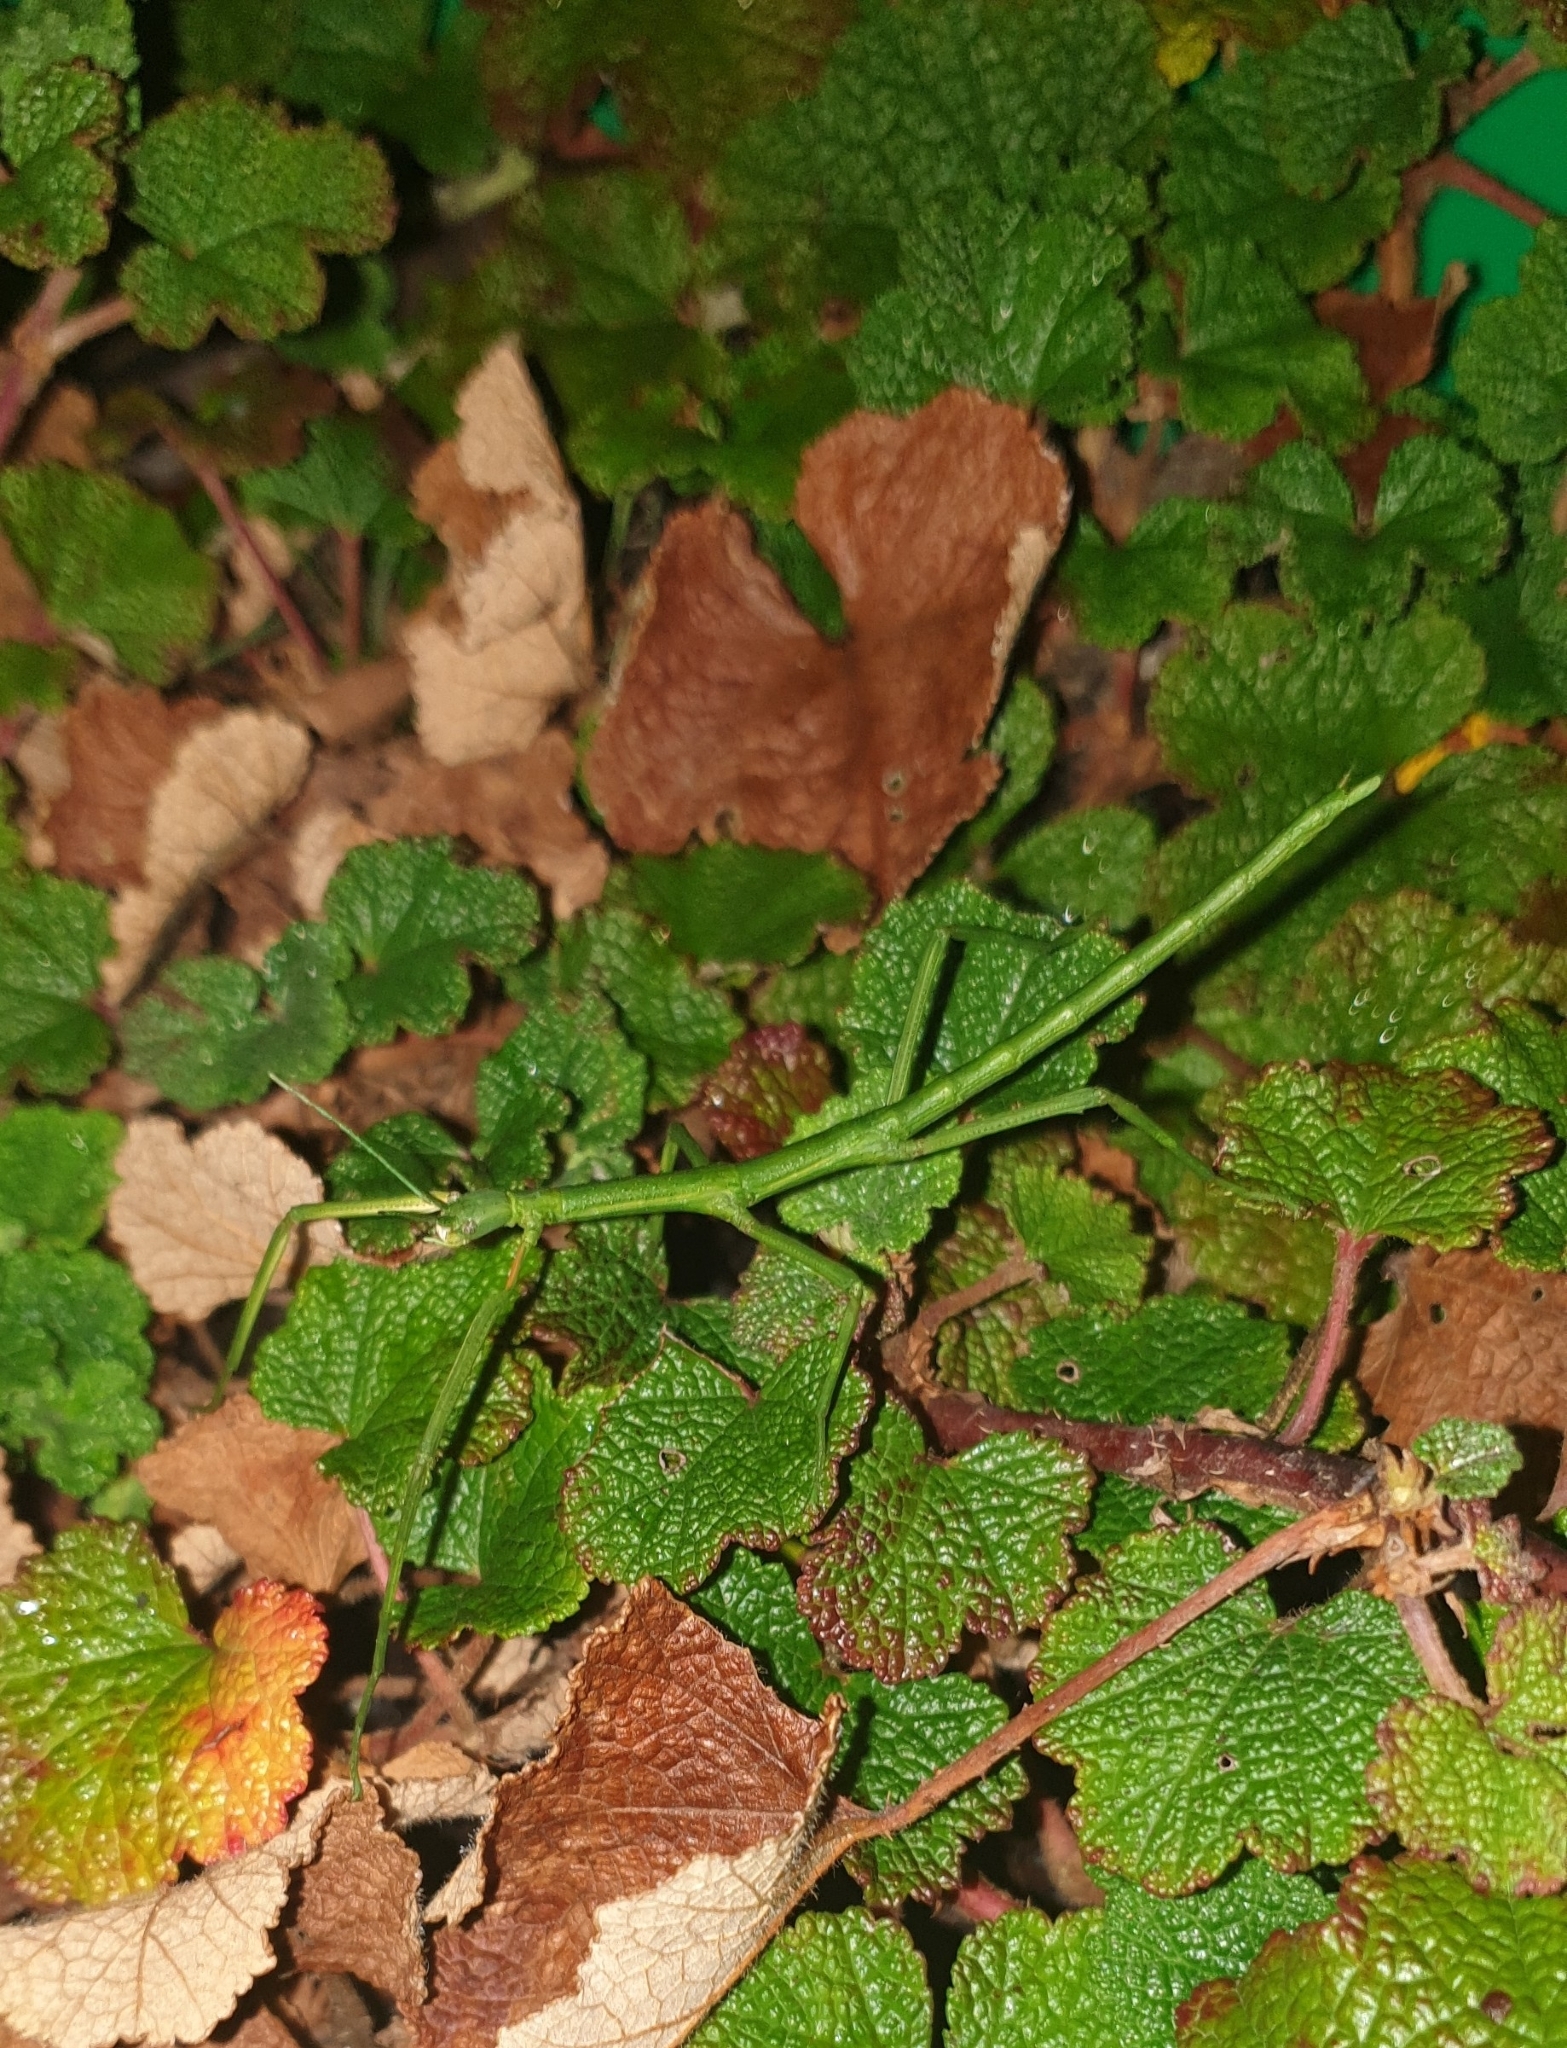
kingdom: Animalia
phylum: Arthropoda
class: Insecta
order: Phasmida
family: Phasmatidae
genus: Clitarchus
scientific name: Clitarchus hookeri
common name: Smooth stick insect
